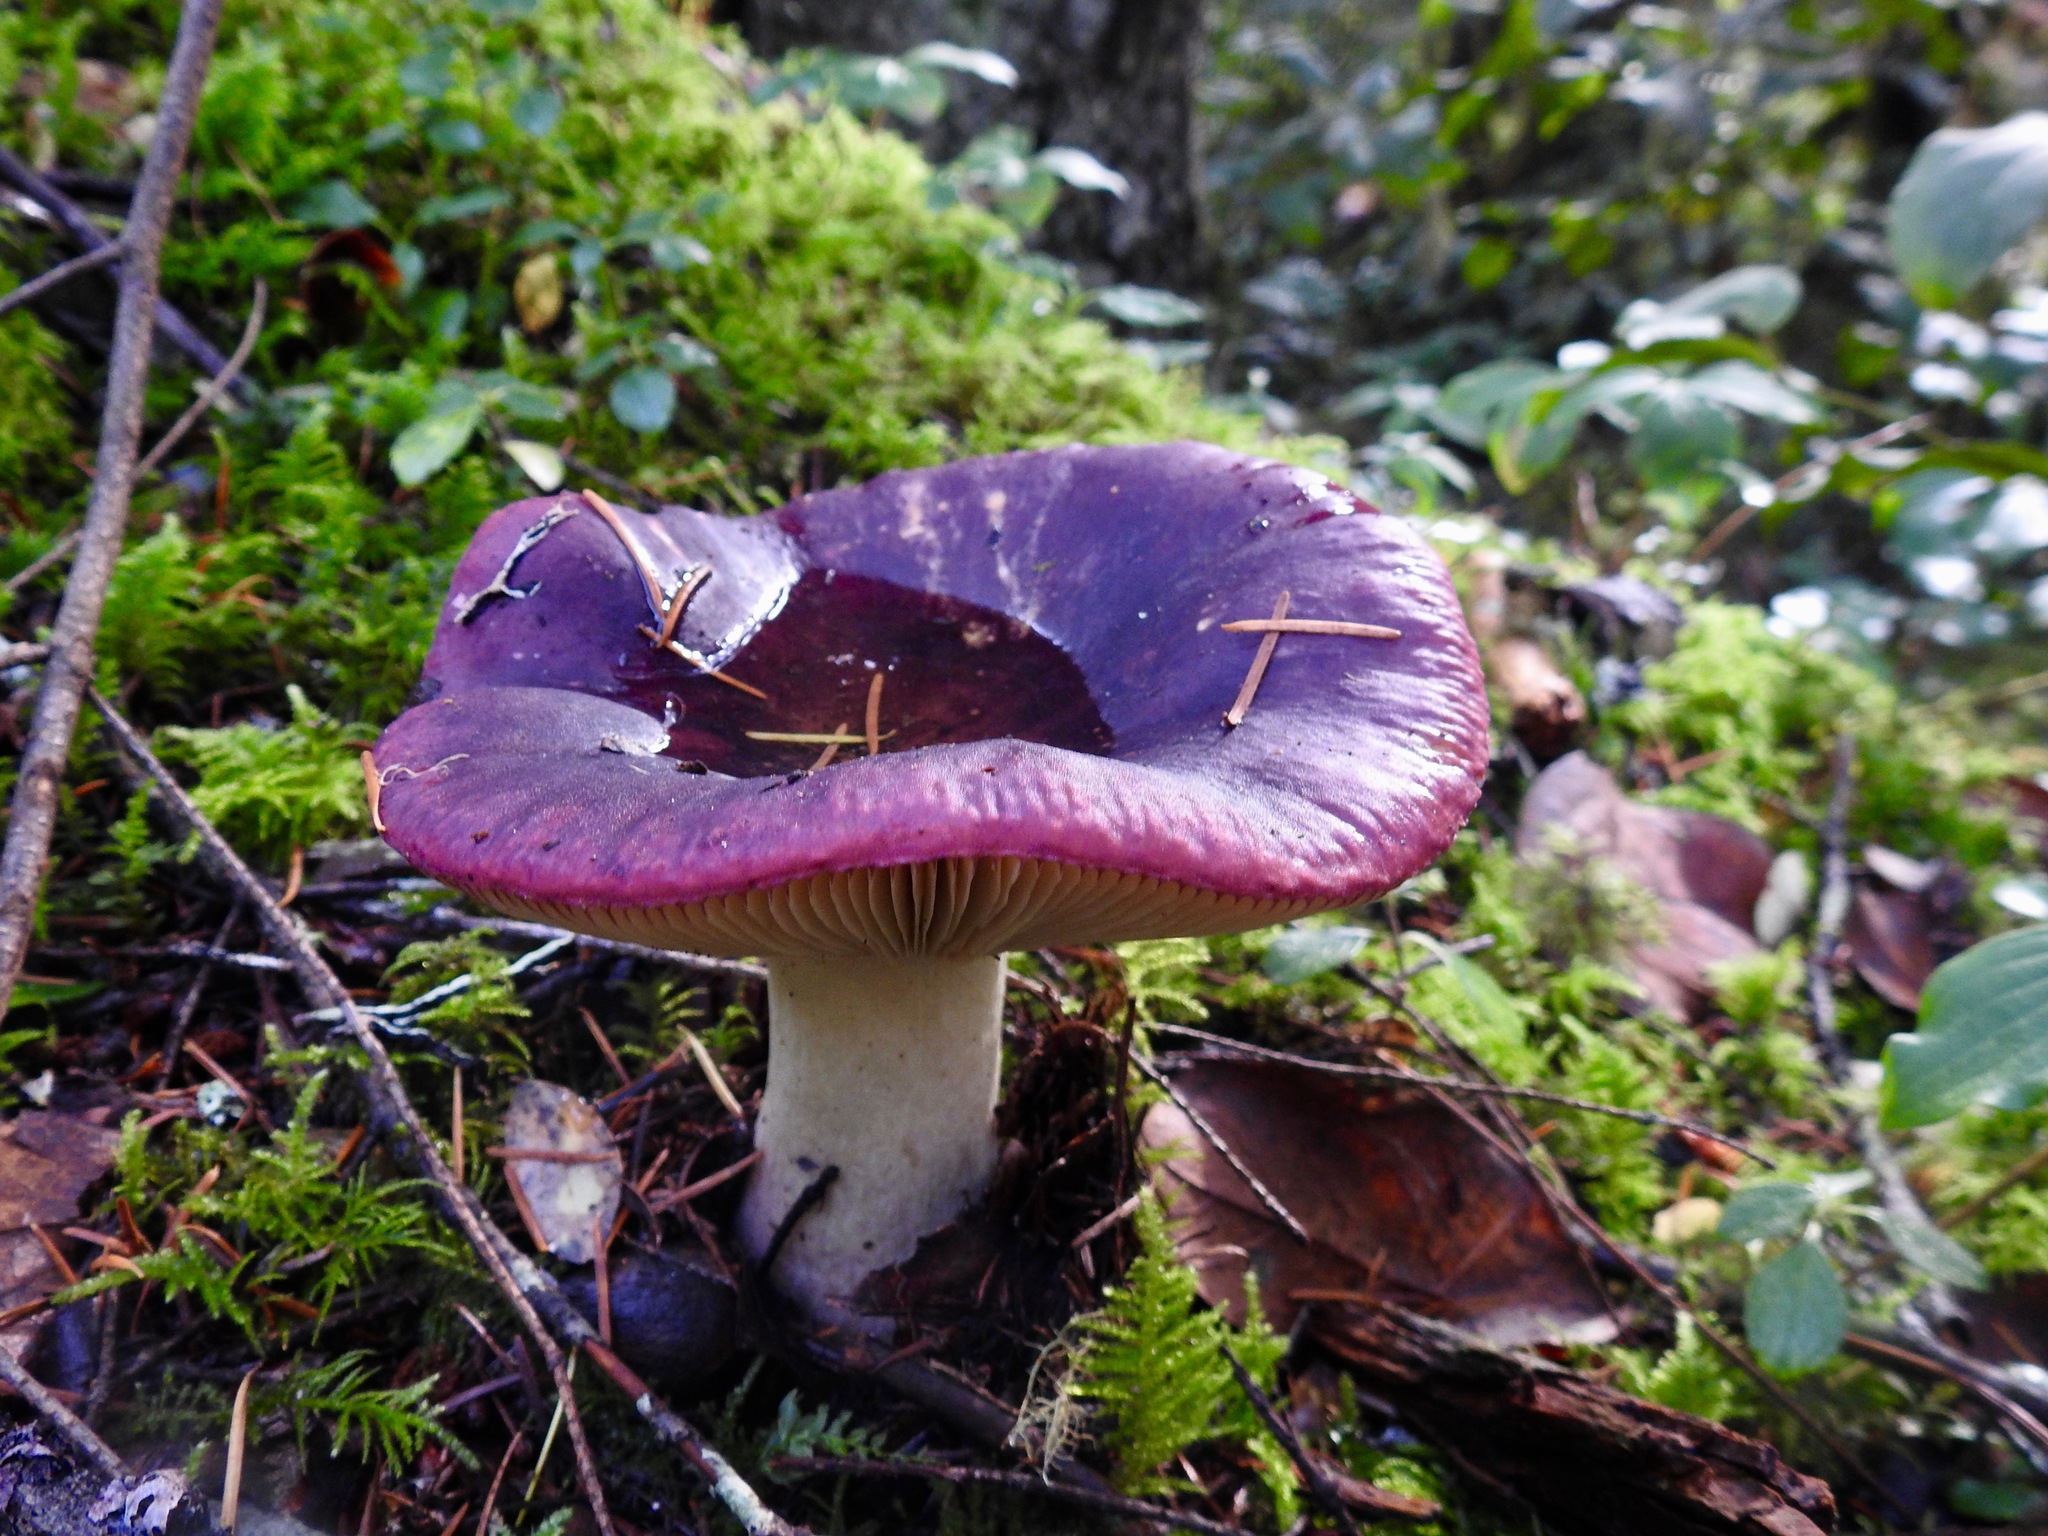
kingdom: Fungi
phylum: Basidiomycota
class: Agaricomycetes
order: Russulales
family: Russulaceae
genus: Russula
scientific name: Russula xerampelina
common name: Crab brittlegill
